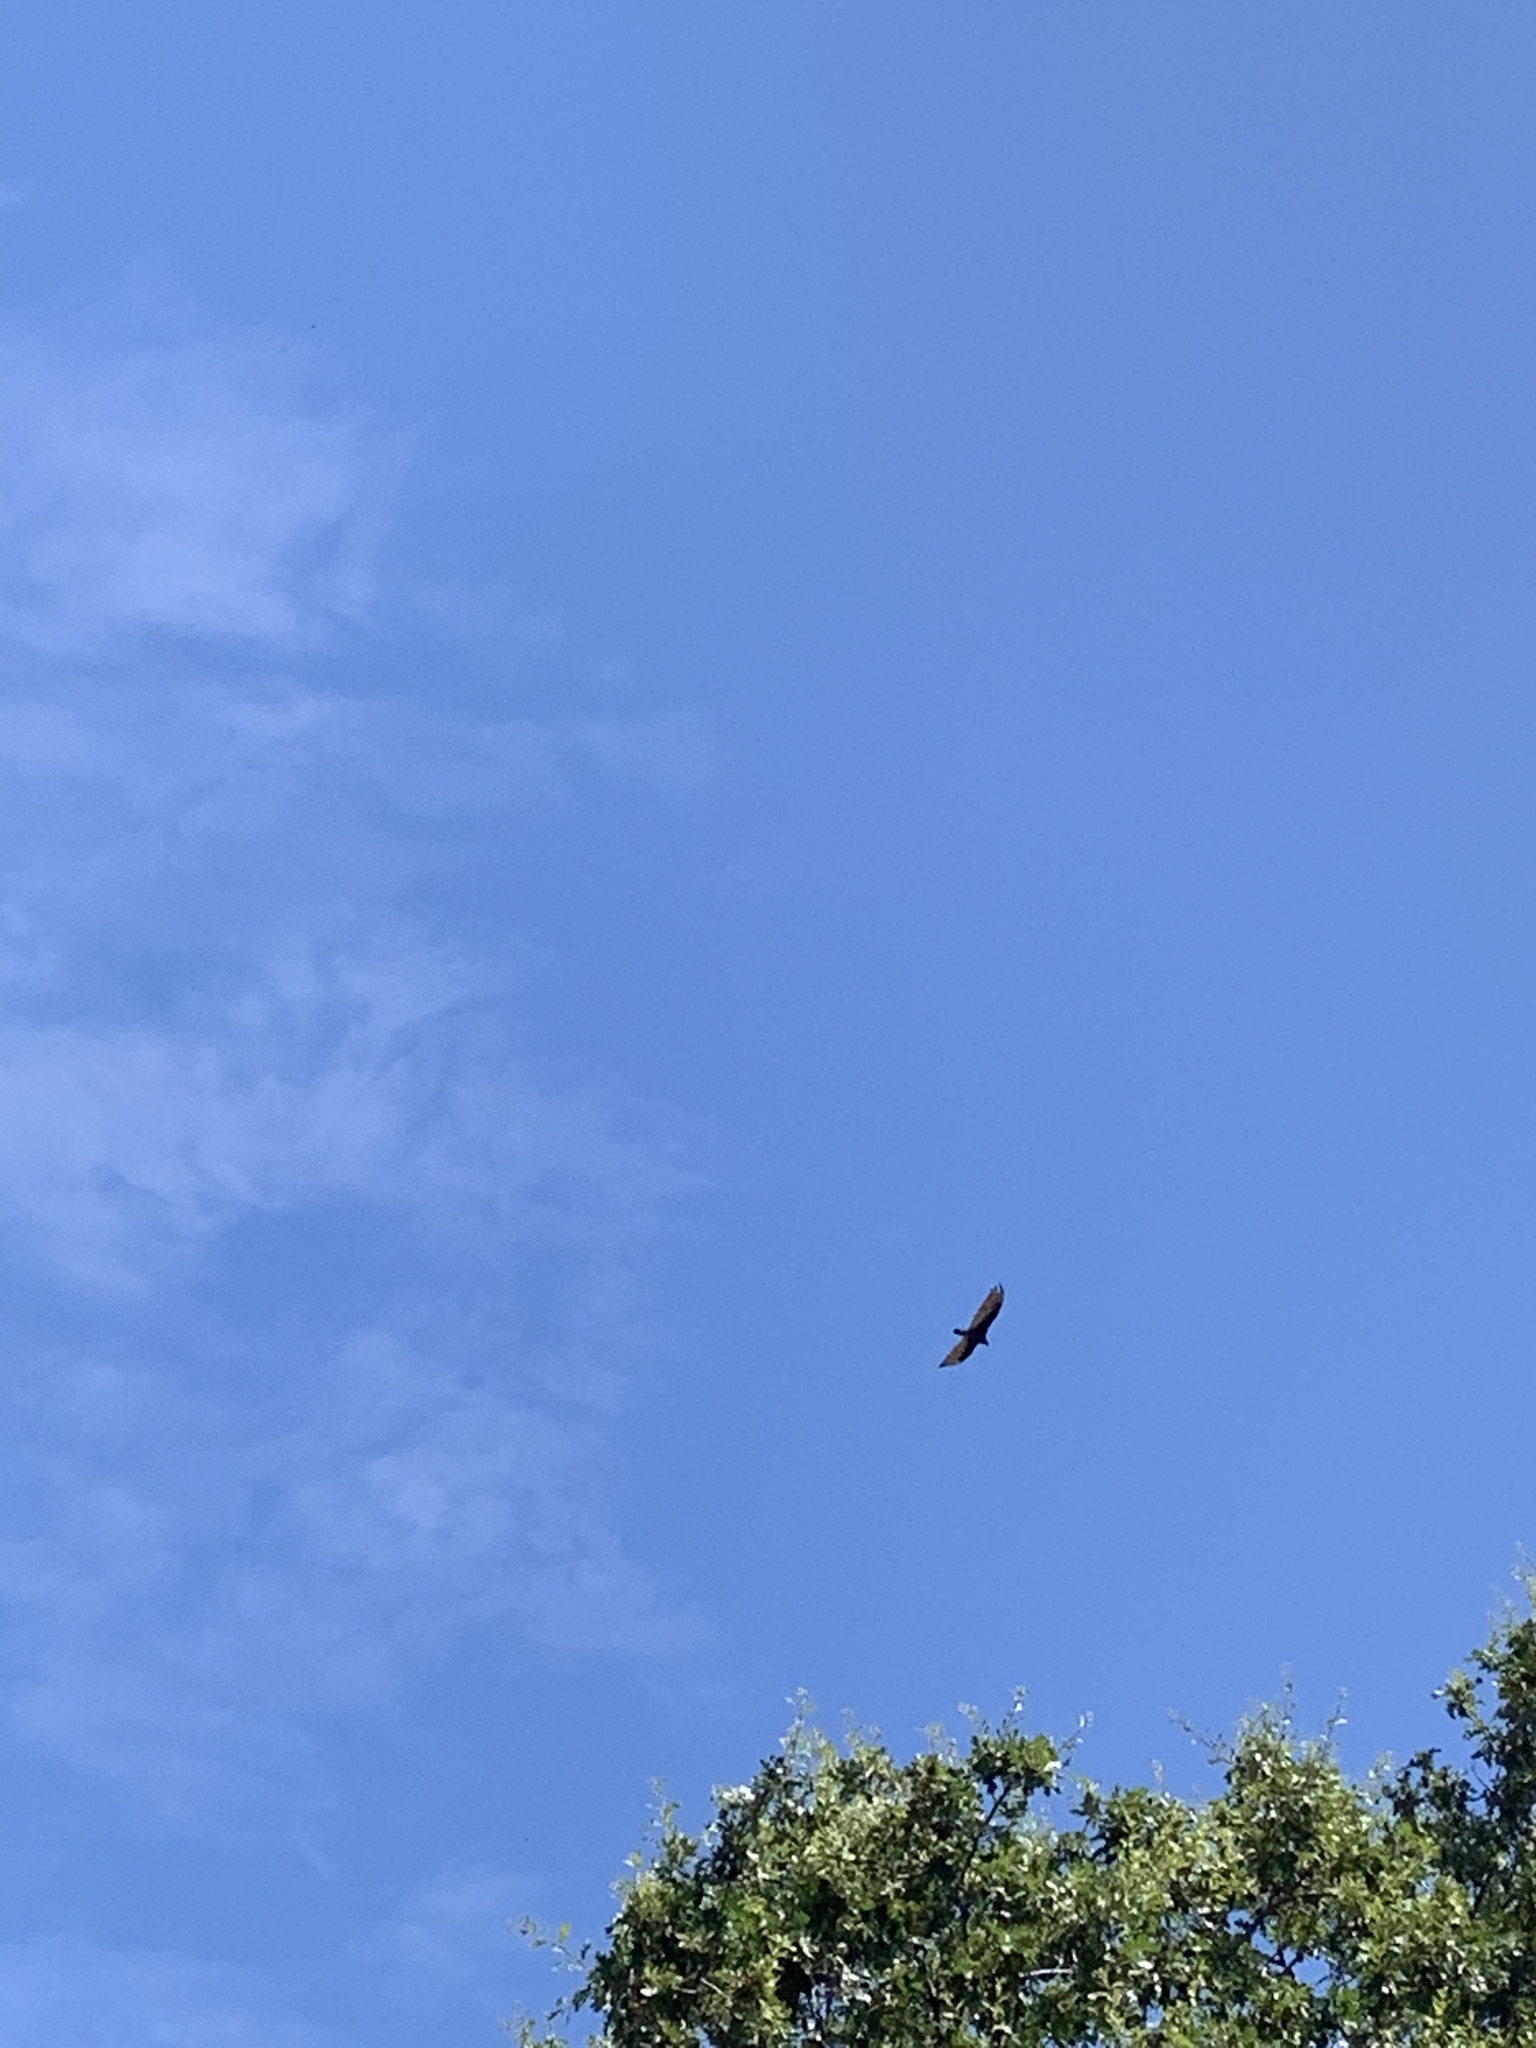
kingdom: Animalia
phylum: Chordata
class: Aves
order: Accipitriformes
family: Cathartidae
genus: Cathartes
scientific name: Cathartes aura
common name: Turkey vulture
